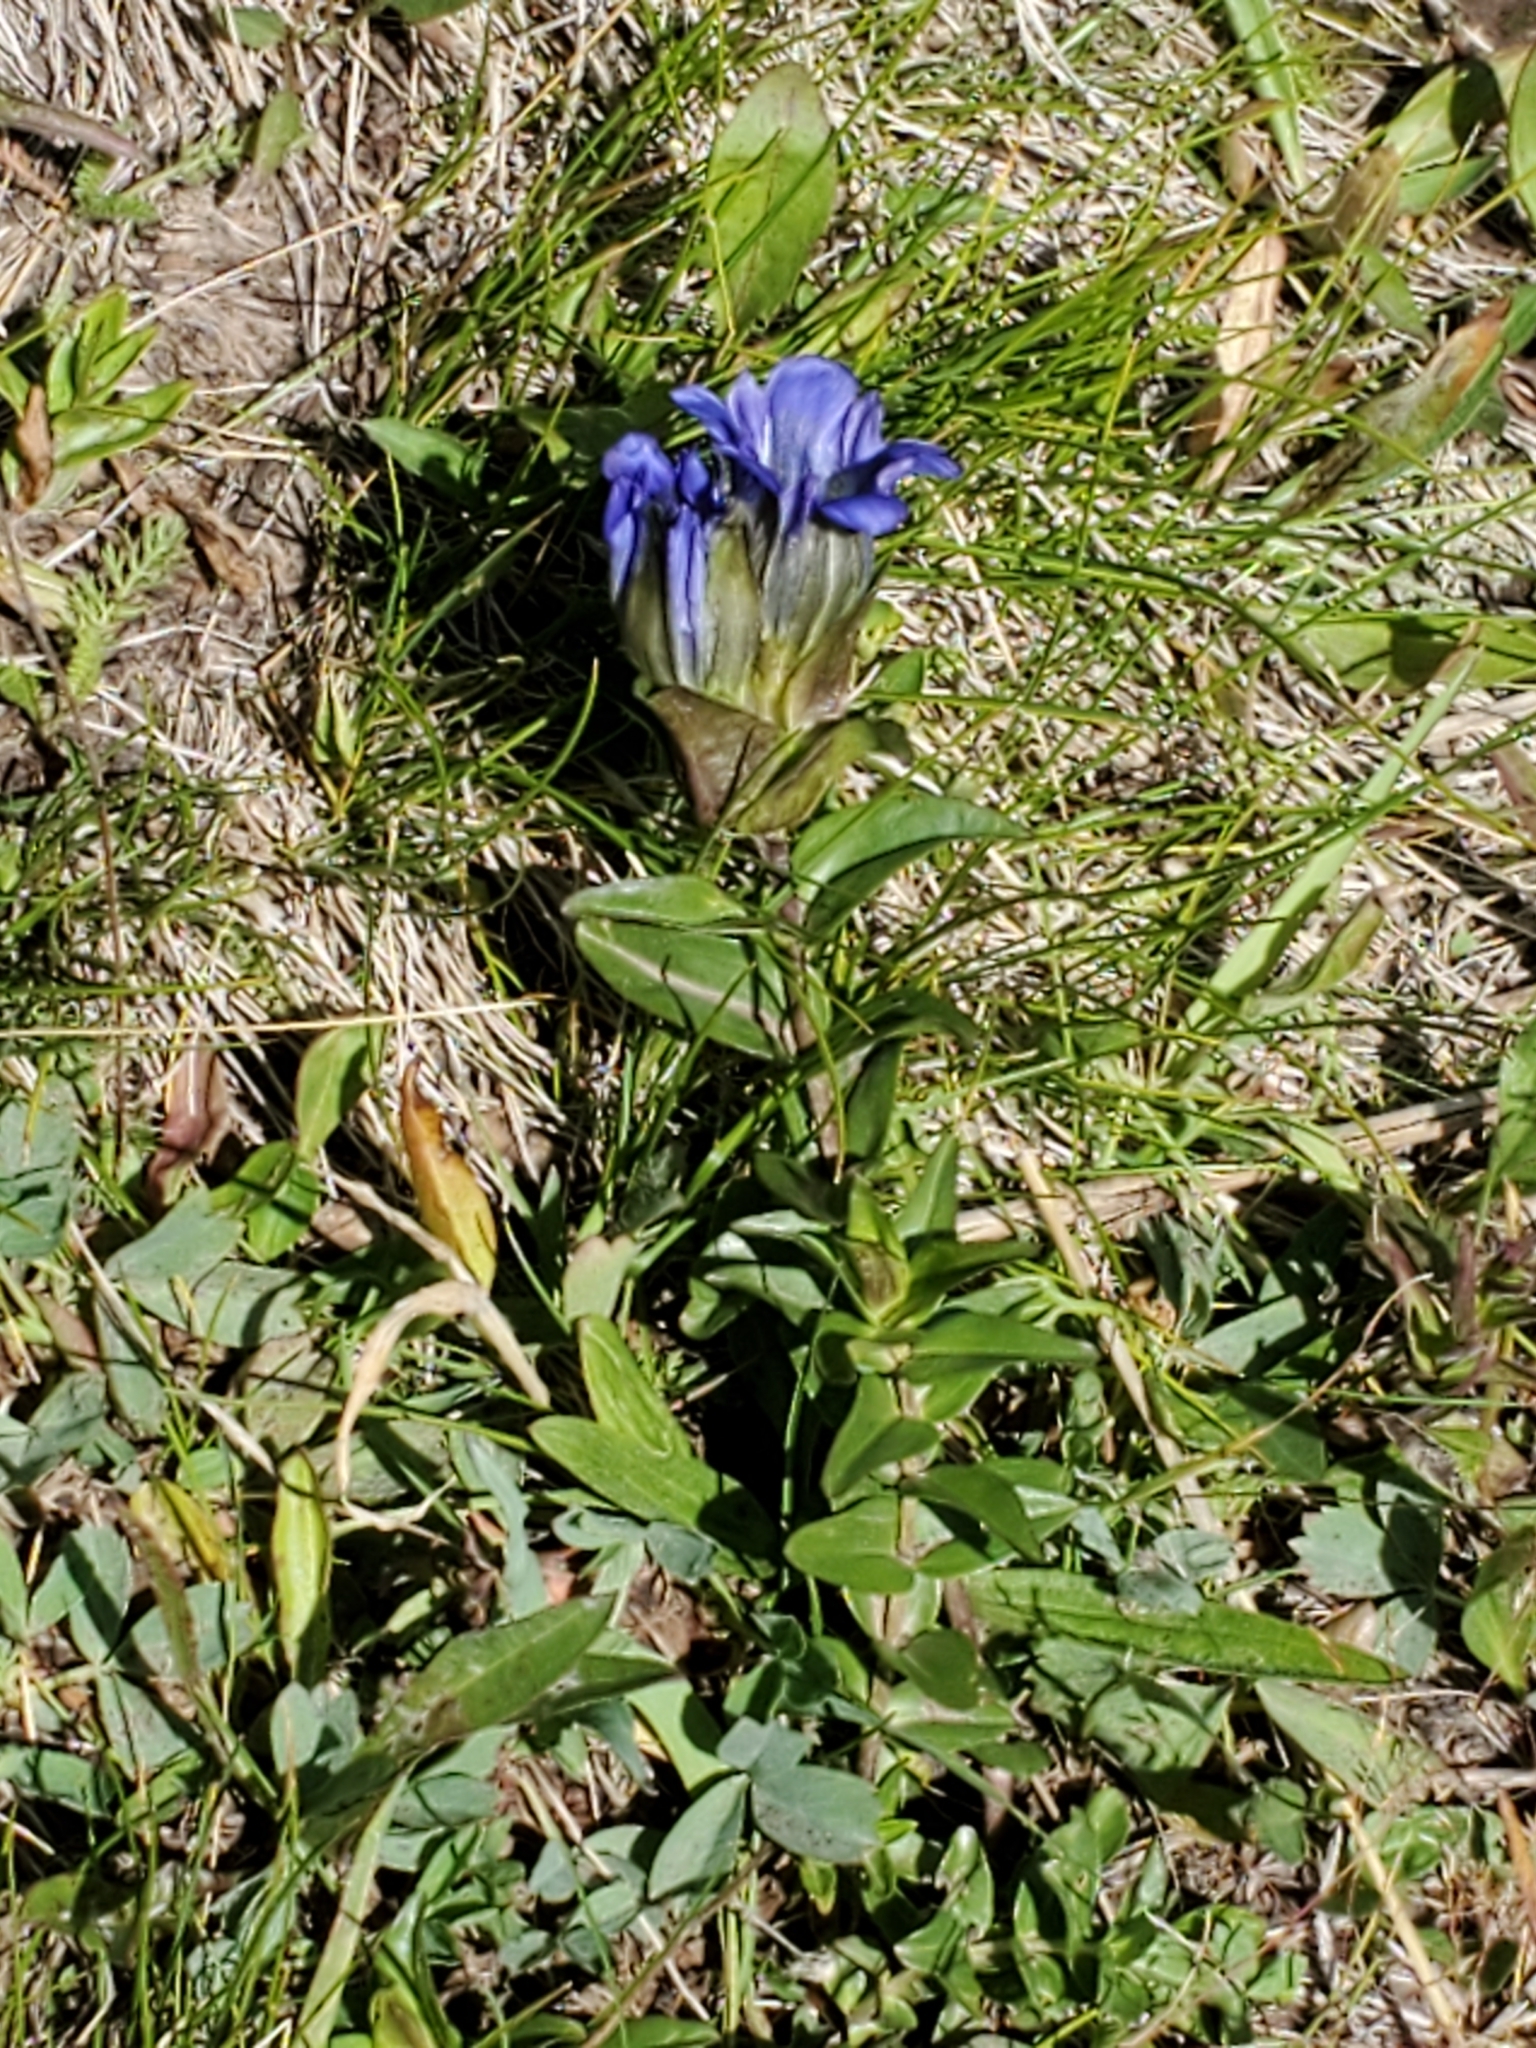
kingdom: Plantae
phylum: Tracheophyta
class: Magnoliopsida
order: Gentianales
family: Gentianaceae
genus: Gentiana
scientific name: Gentiana parryi
